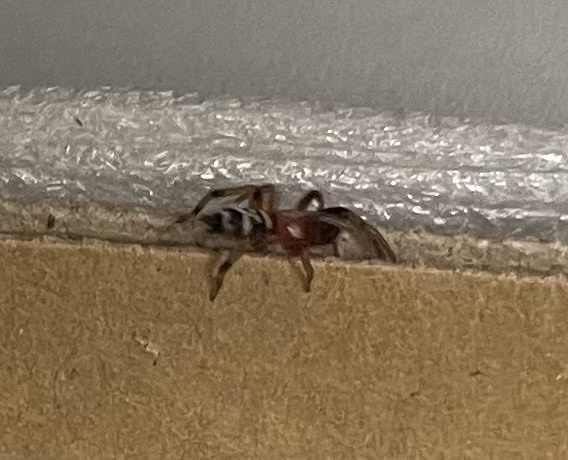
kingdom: Animalia
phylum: Arthropoda
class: Arachnida
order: Araneae
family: Gnaphosidae
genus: Sergiolus
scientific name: Sergiolus capulatus
